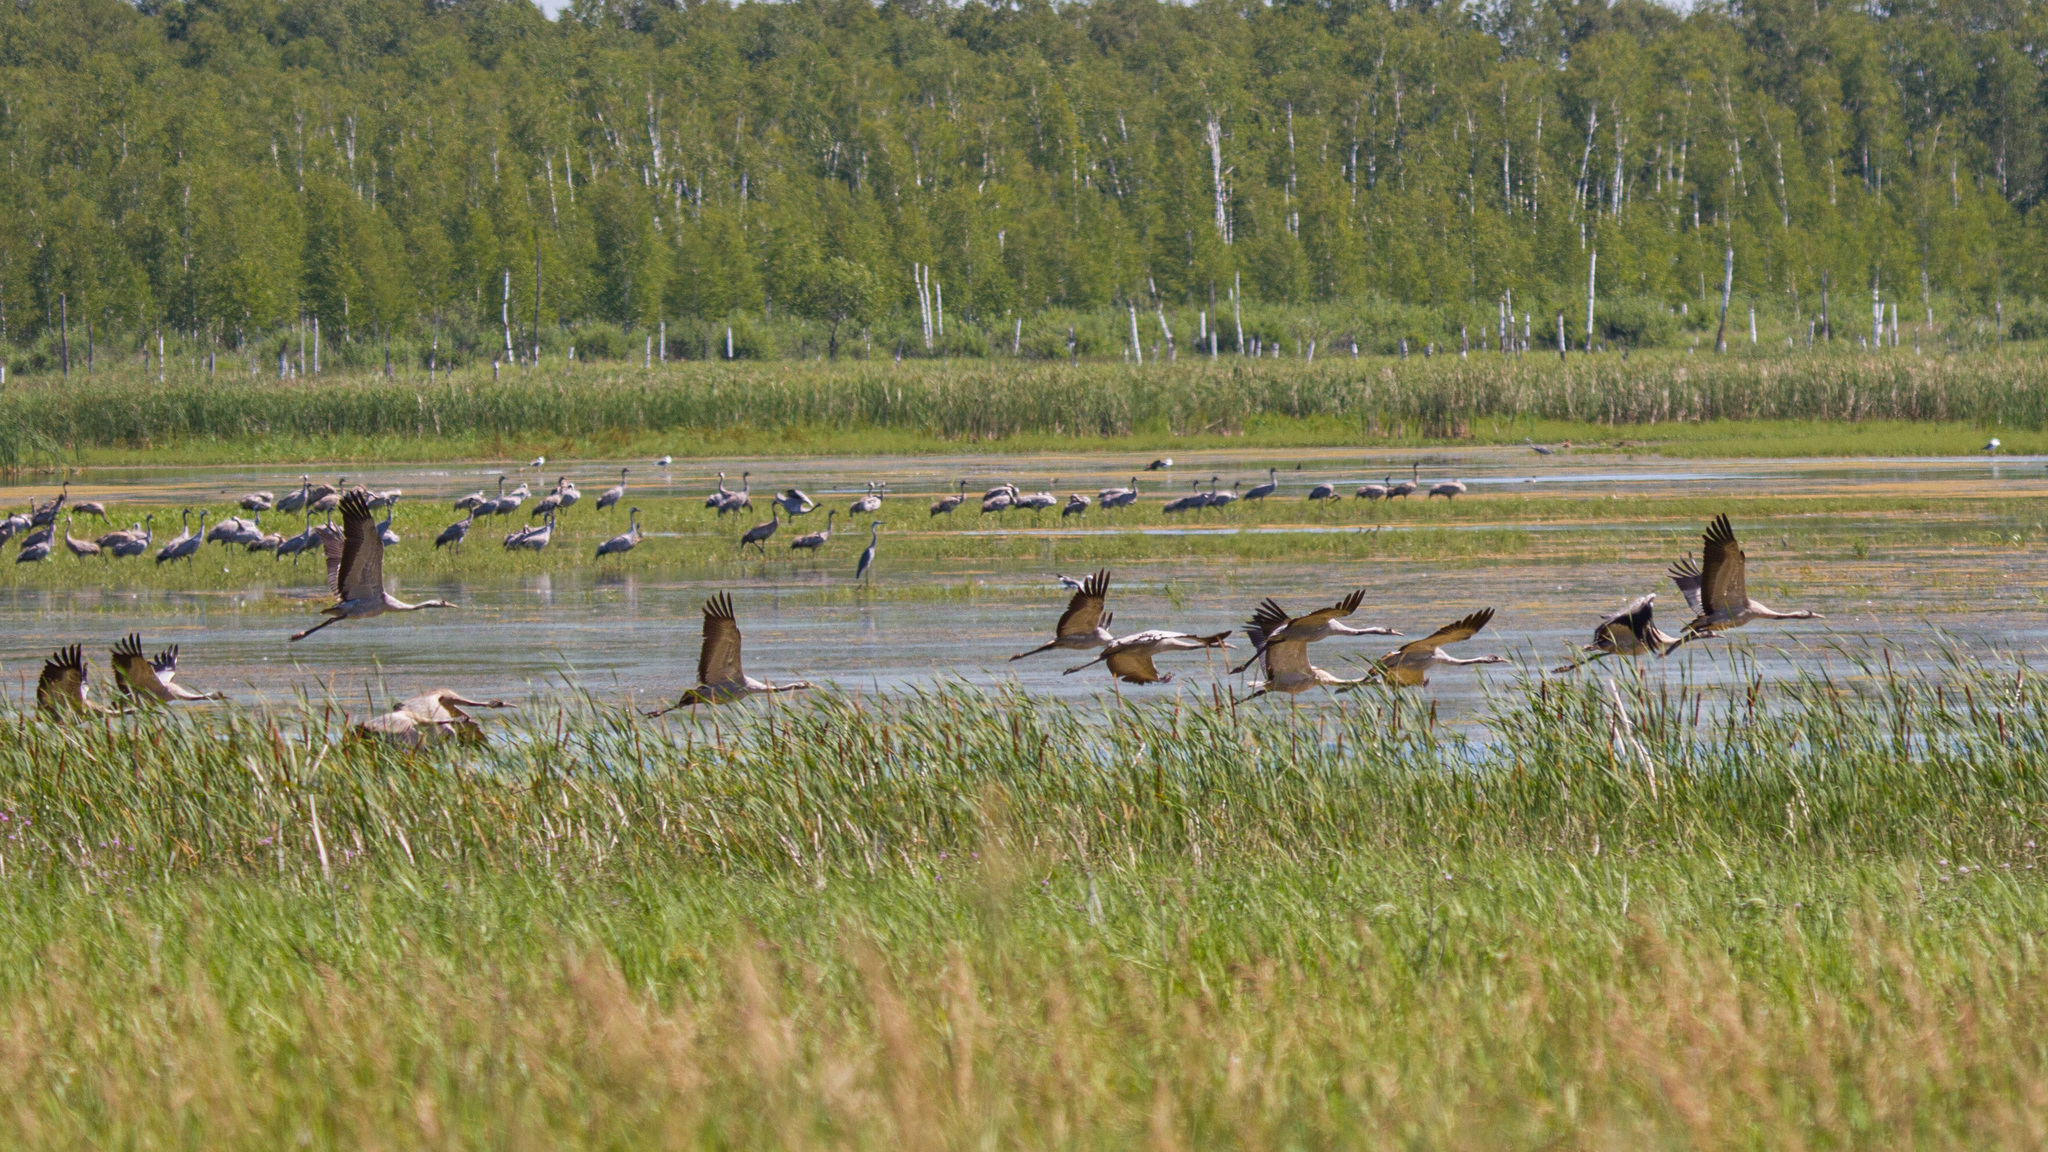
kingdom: Animalia
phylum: Chordata
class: Aves
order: Gruiformes
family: Gruidae
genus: Grus
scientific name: Grus grus
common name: Common crane
